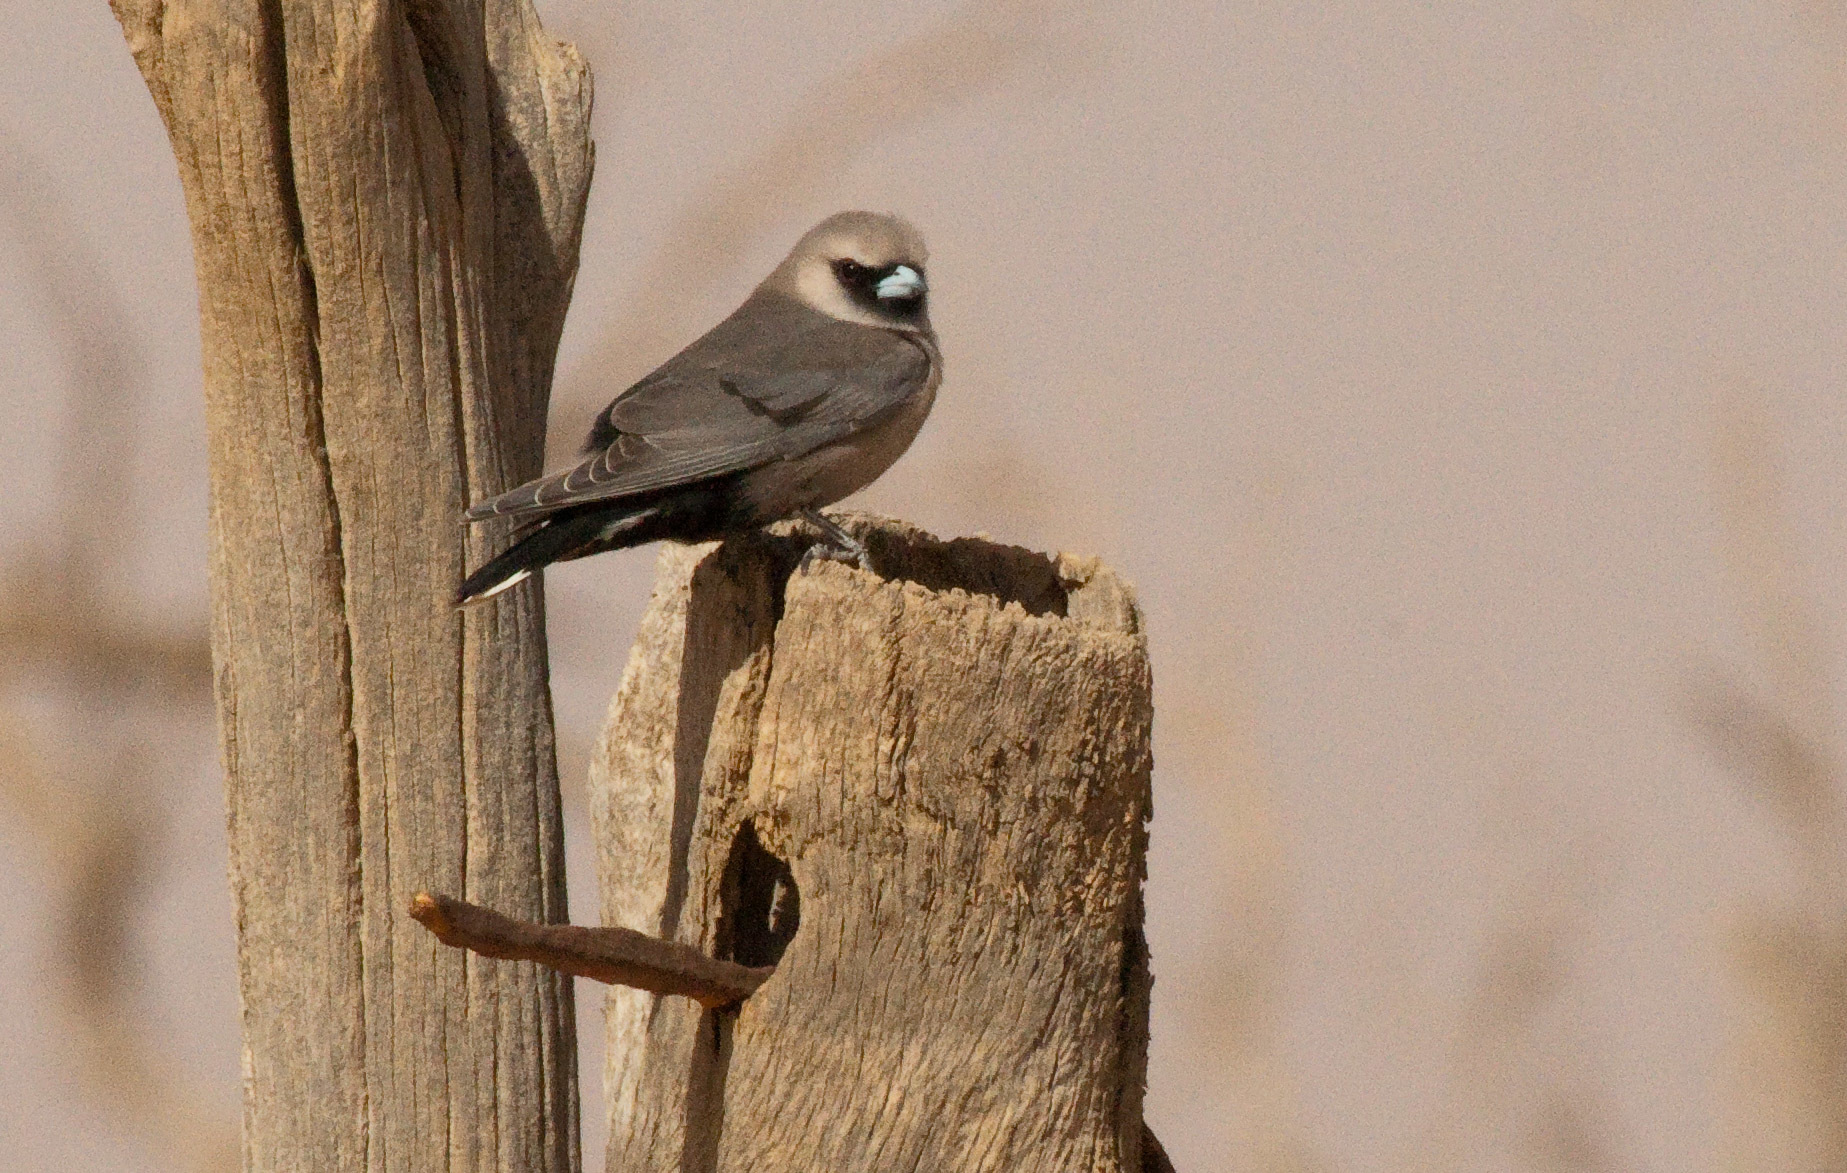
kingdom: Animalia
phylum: Chordata
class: Aves
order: Passeriformes
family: Artamidae
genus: Artamus
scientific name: Artamus cinereus
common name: Black-faced woodswallow
